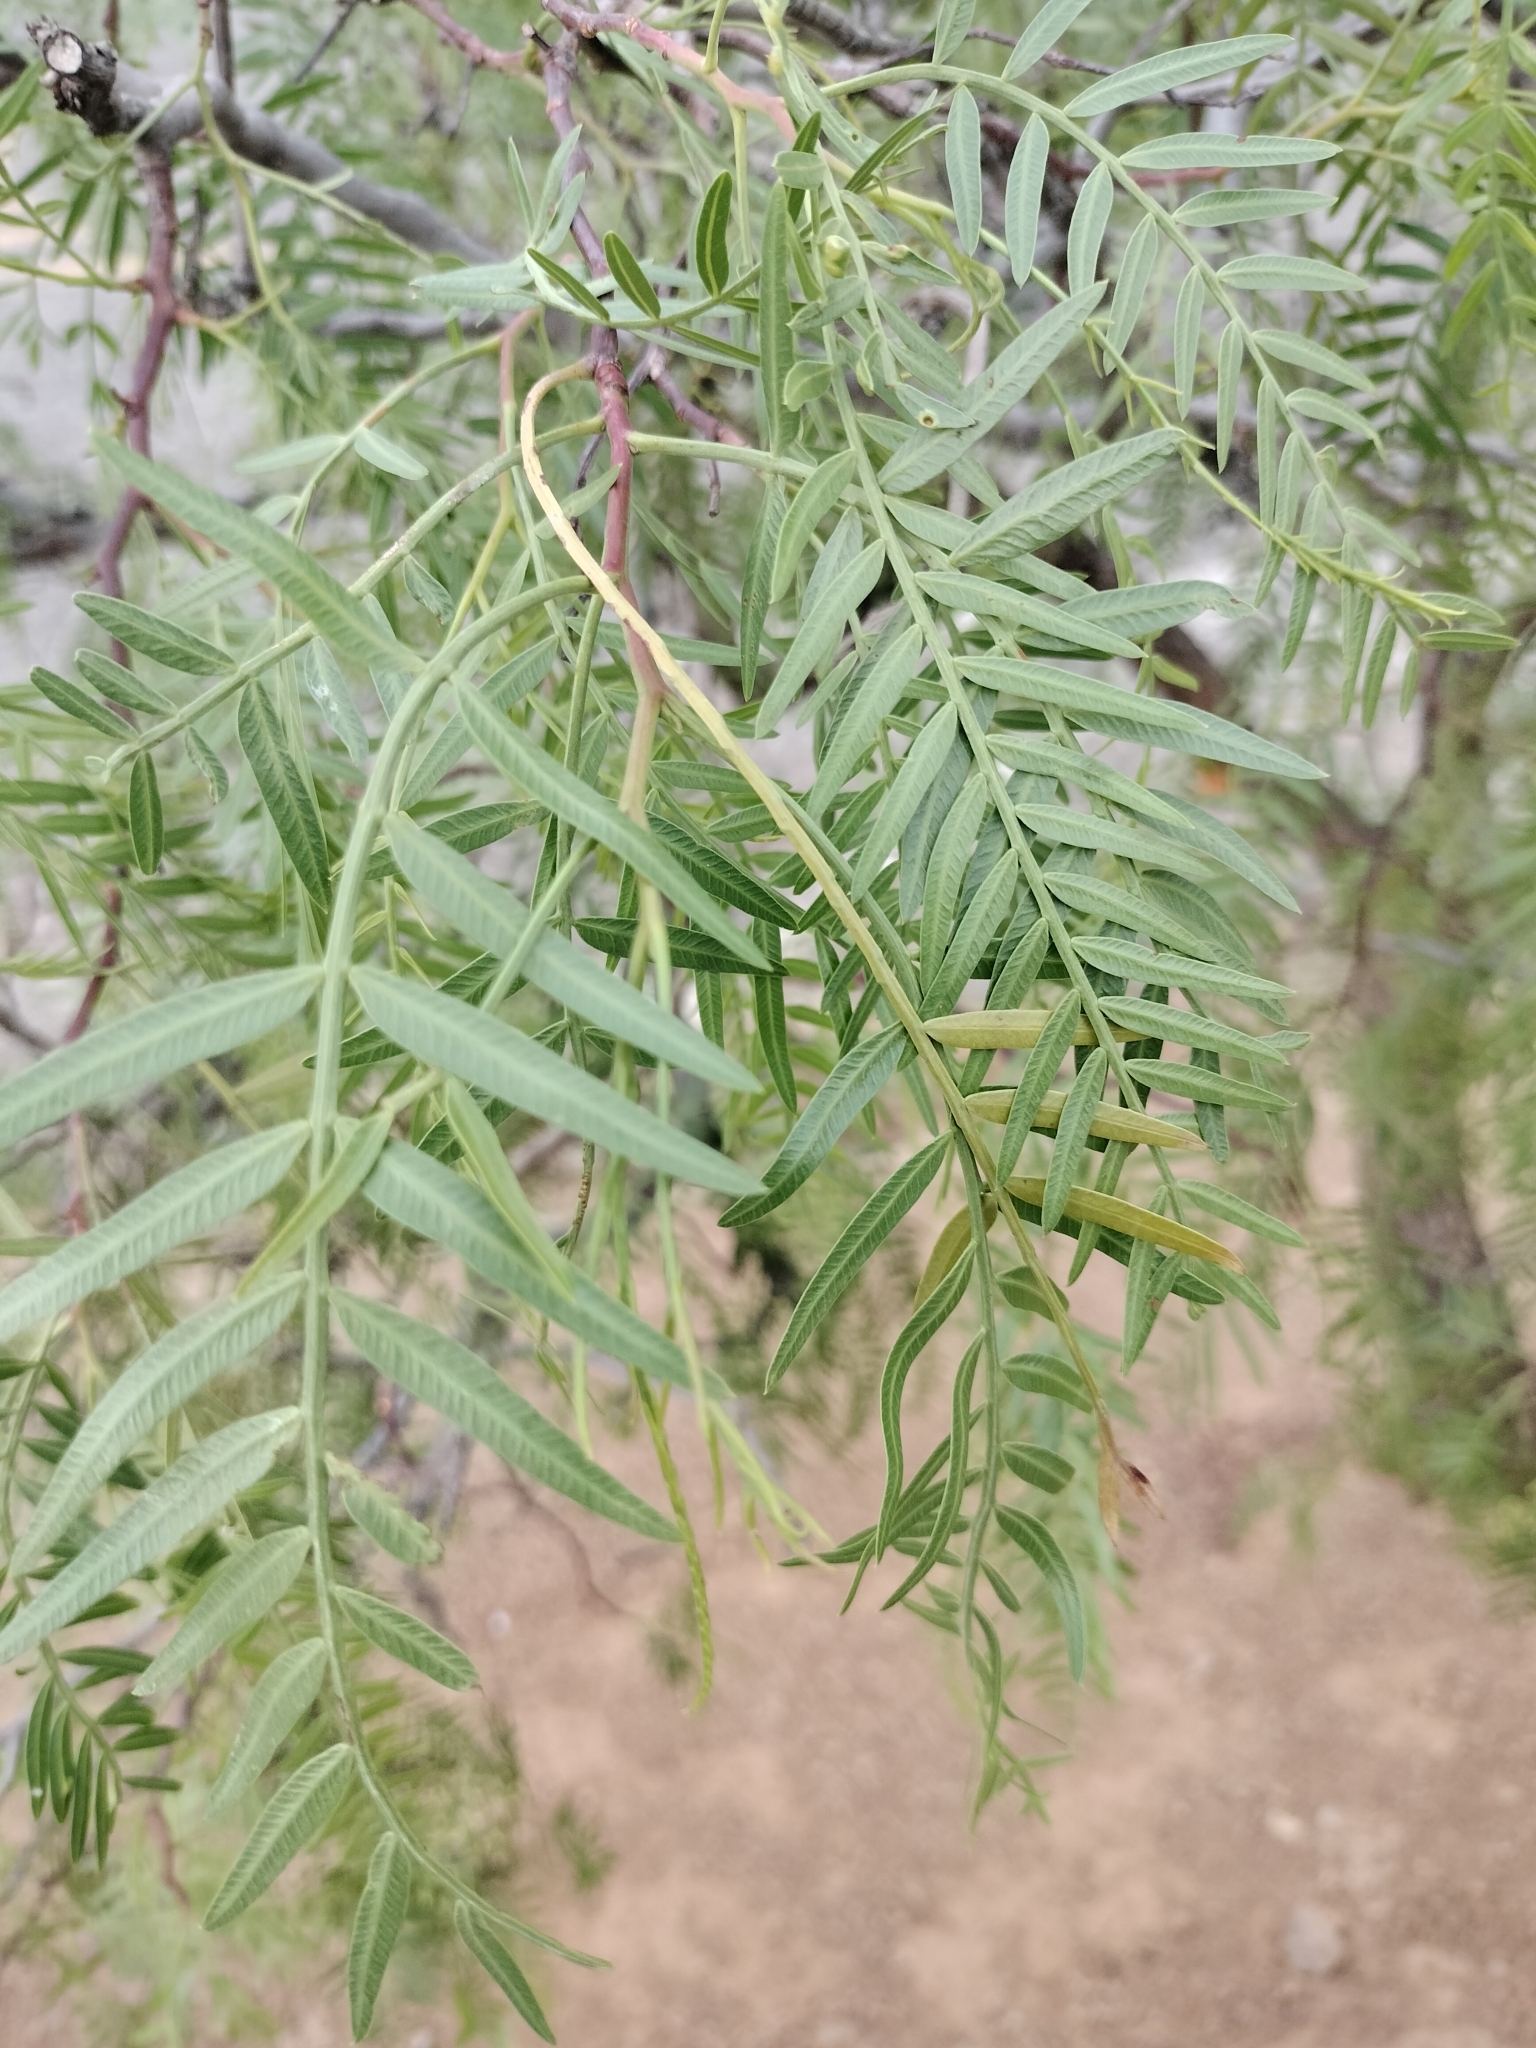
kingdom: Plantae
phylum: Tracheophyta
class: Magnoliopsida
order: Sapindales
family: Anacardiaceae
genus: Schinus
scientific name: Schinus areira
